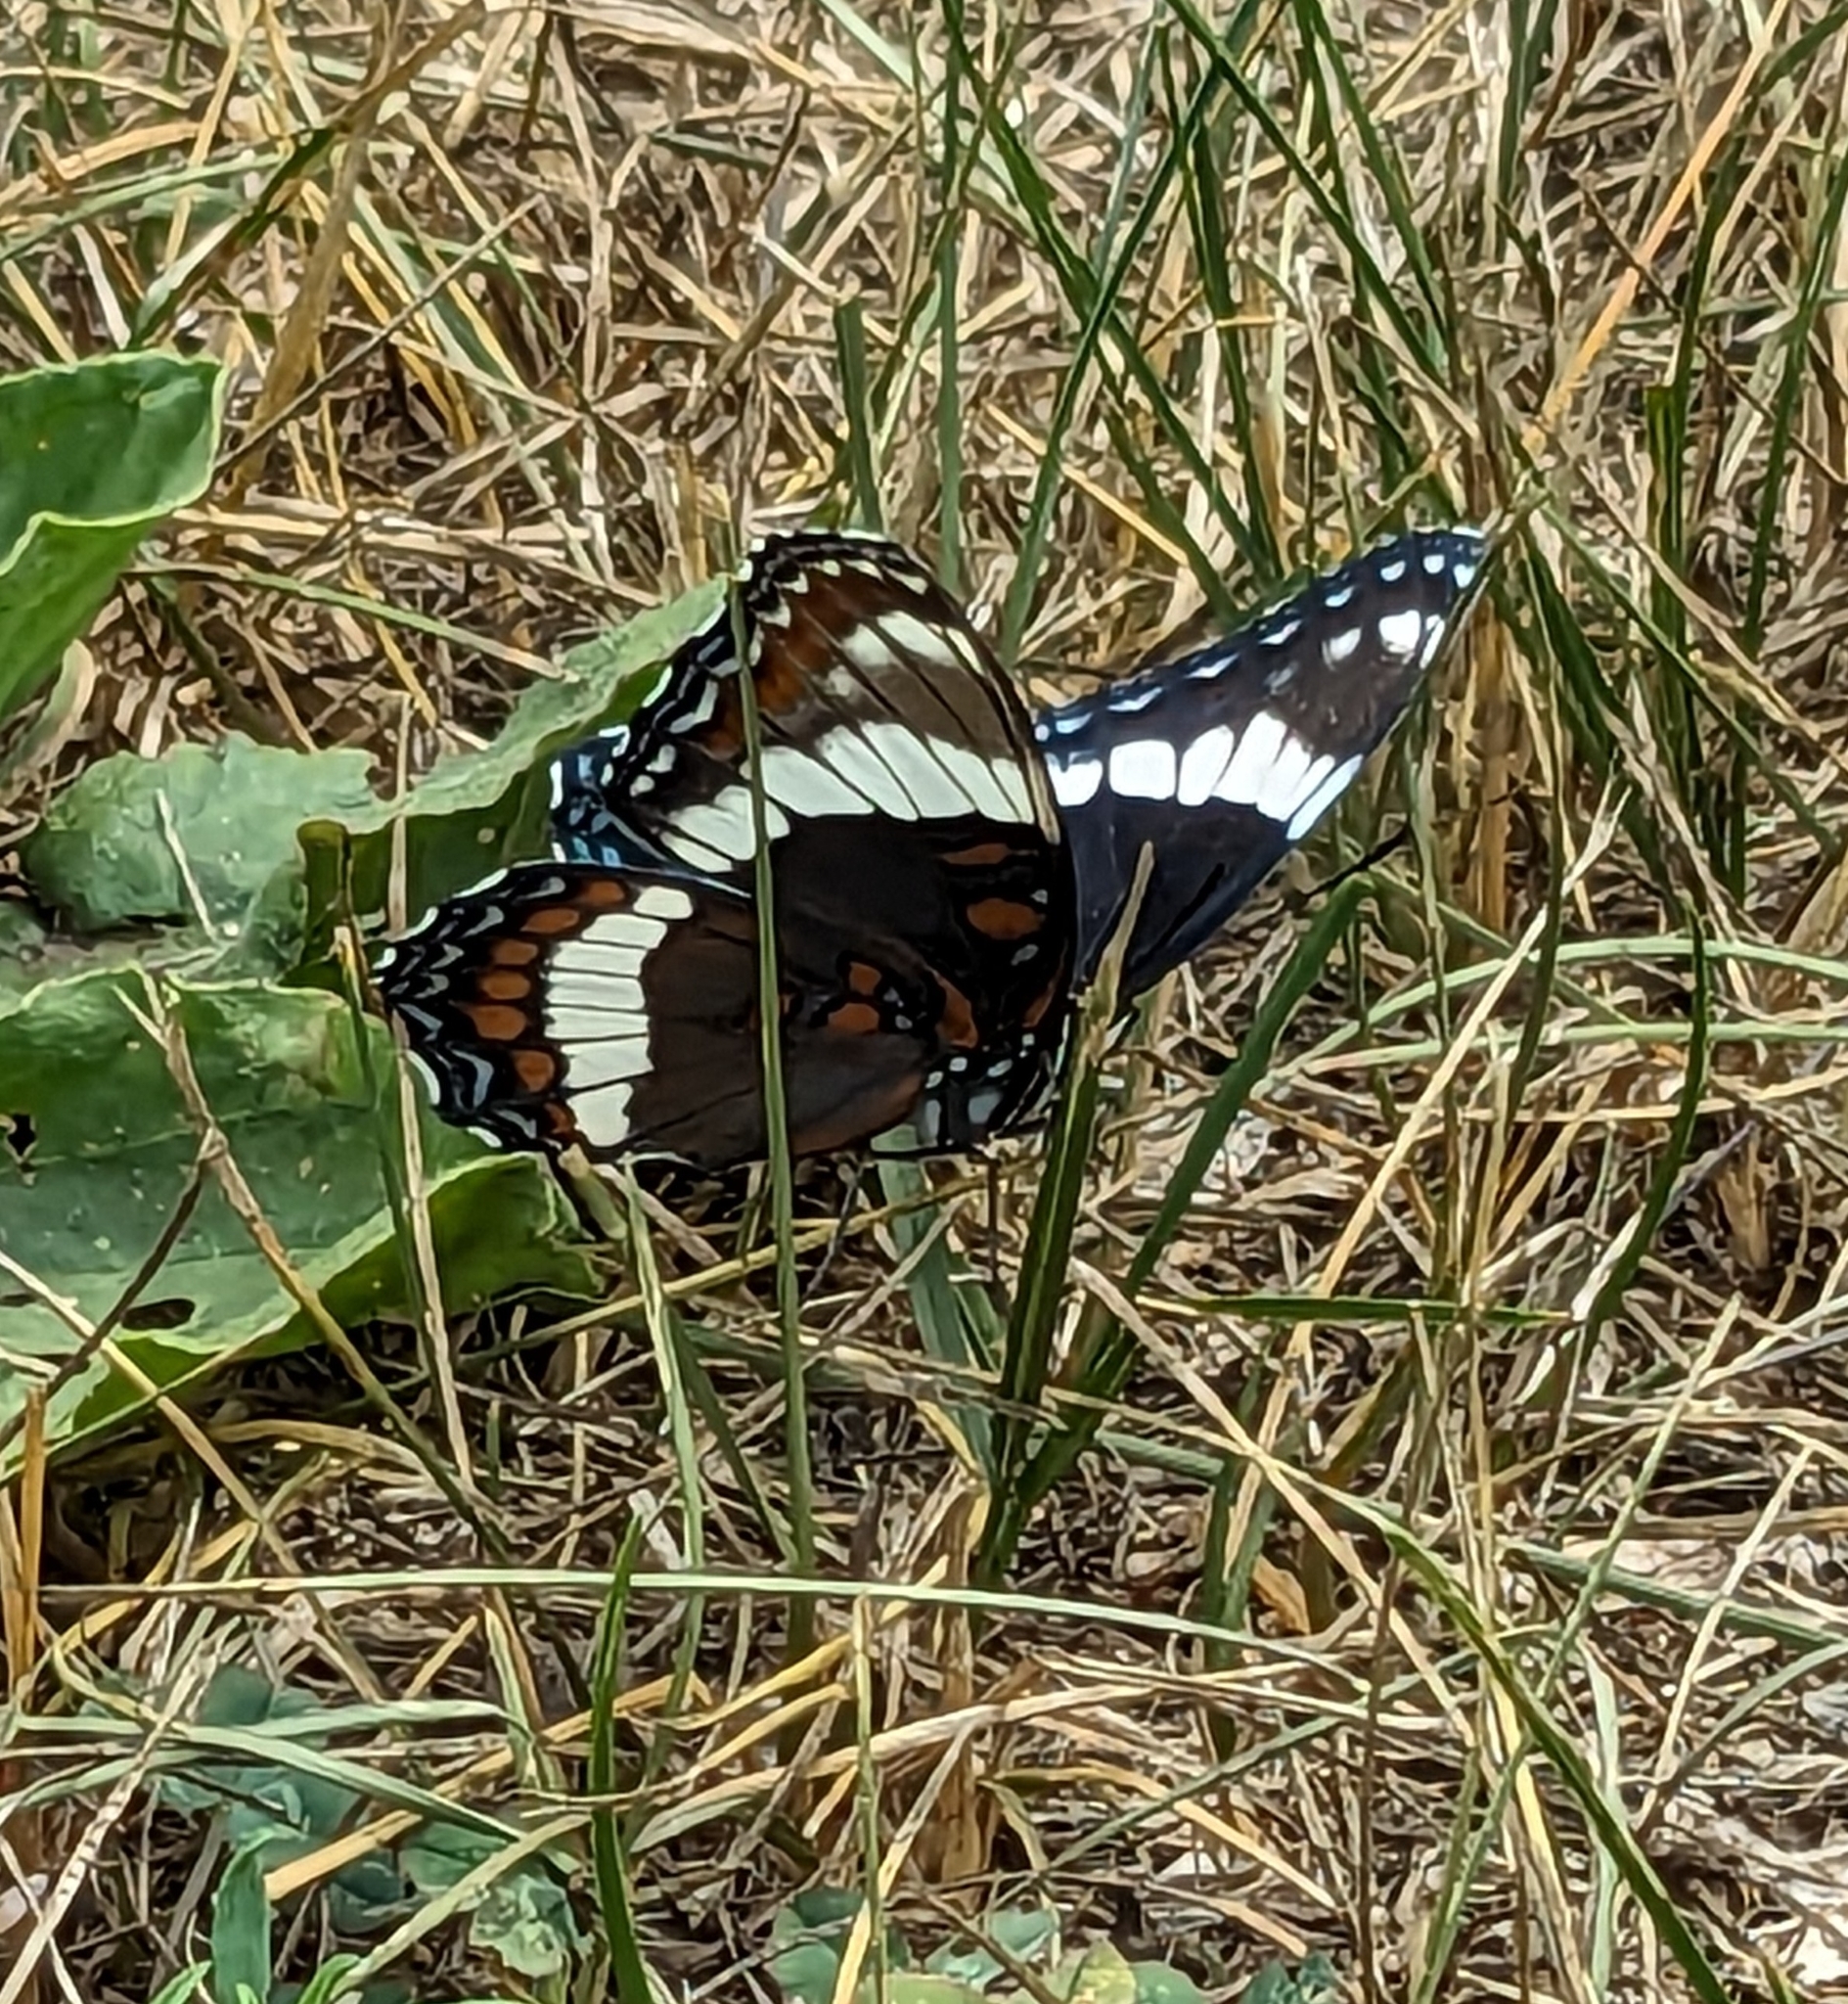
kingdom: Animalia
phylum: Arthropoda
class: Insecta
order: Lepidoptera
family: Nymphalidae
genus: Limenitis
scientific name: Limenitis arthemis
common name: Red-spotted admiral
